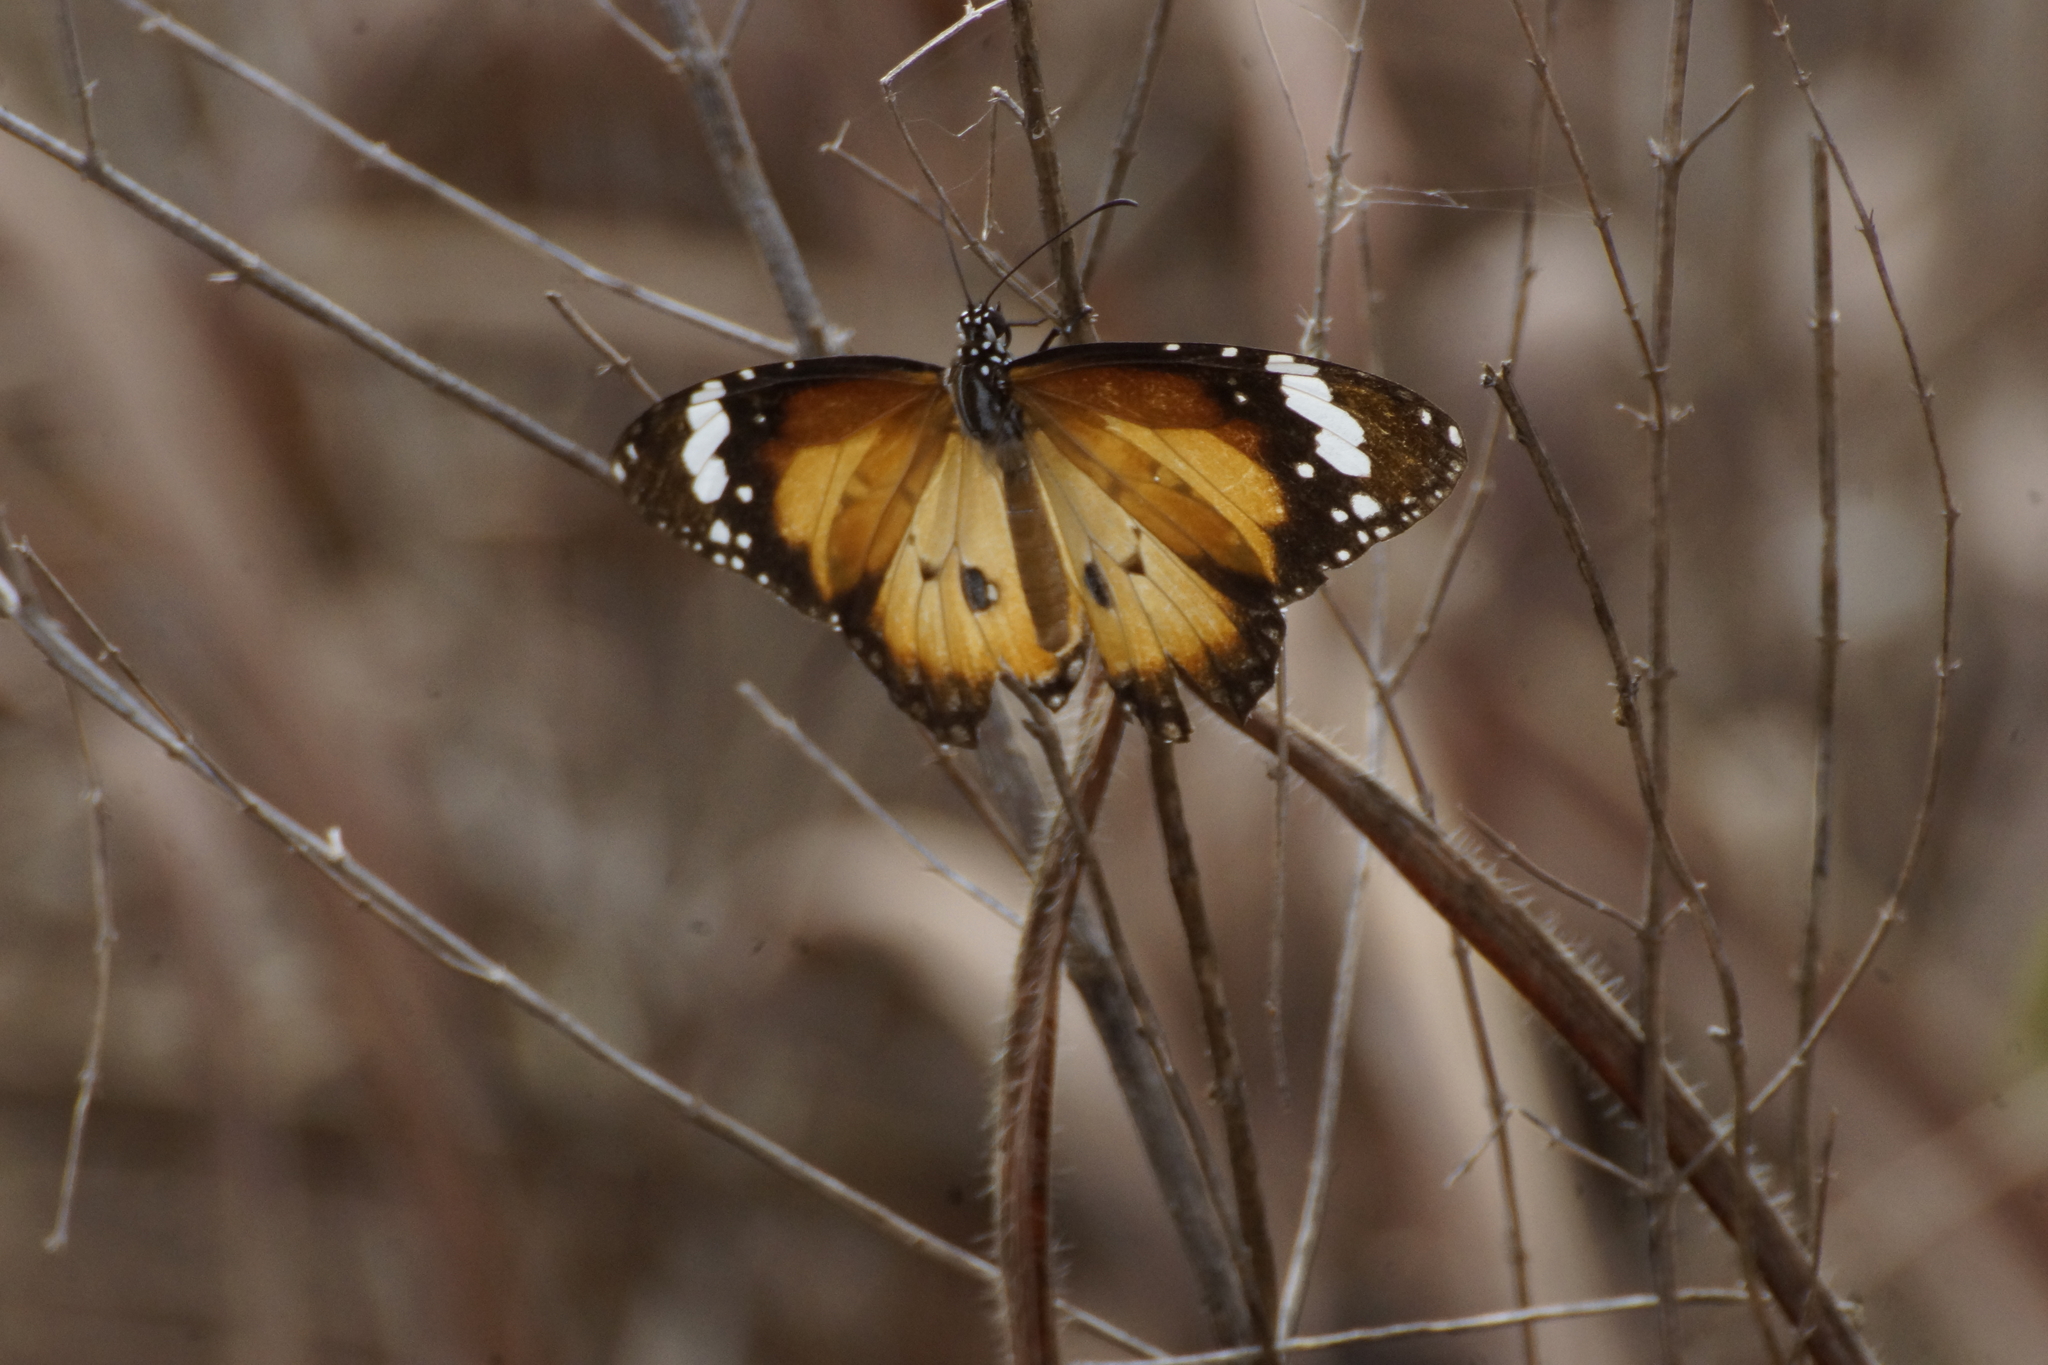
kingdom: Animalia
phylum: Arthropoda
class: Insecta
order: Lepidoptera
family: Nymphalidae
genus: Danaus
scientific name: Danaus chrysippus
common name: Plain tiger
